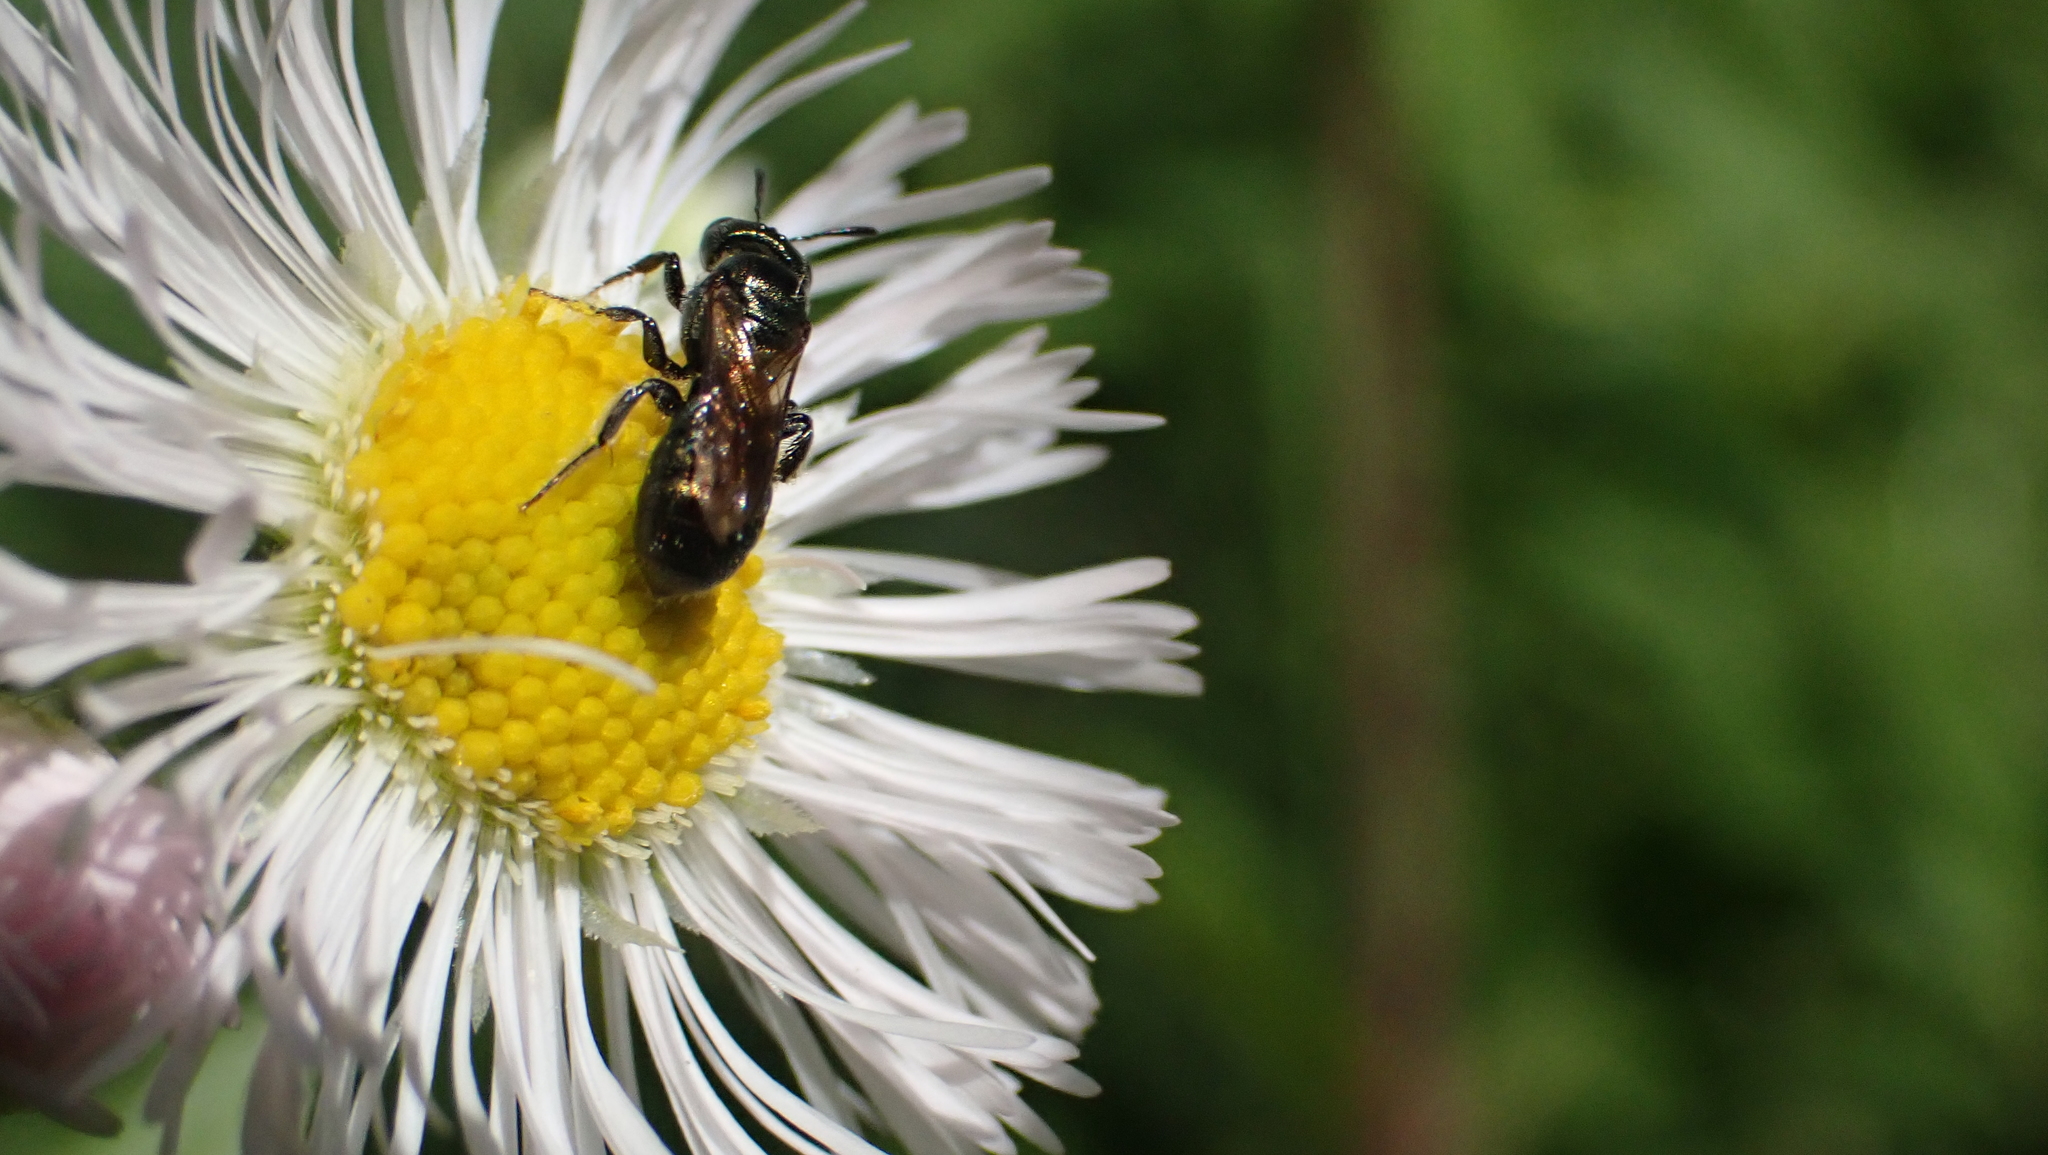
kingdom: Animalia
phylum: Arthropoda
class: Insecta
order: Hymenoptera
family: Apidae
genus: Ceratina
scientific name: Ceratina strenua
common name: Nimble carpenter bee
